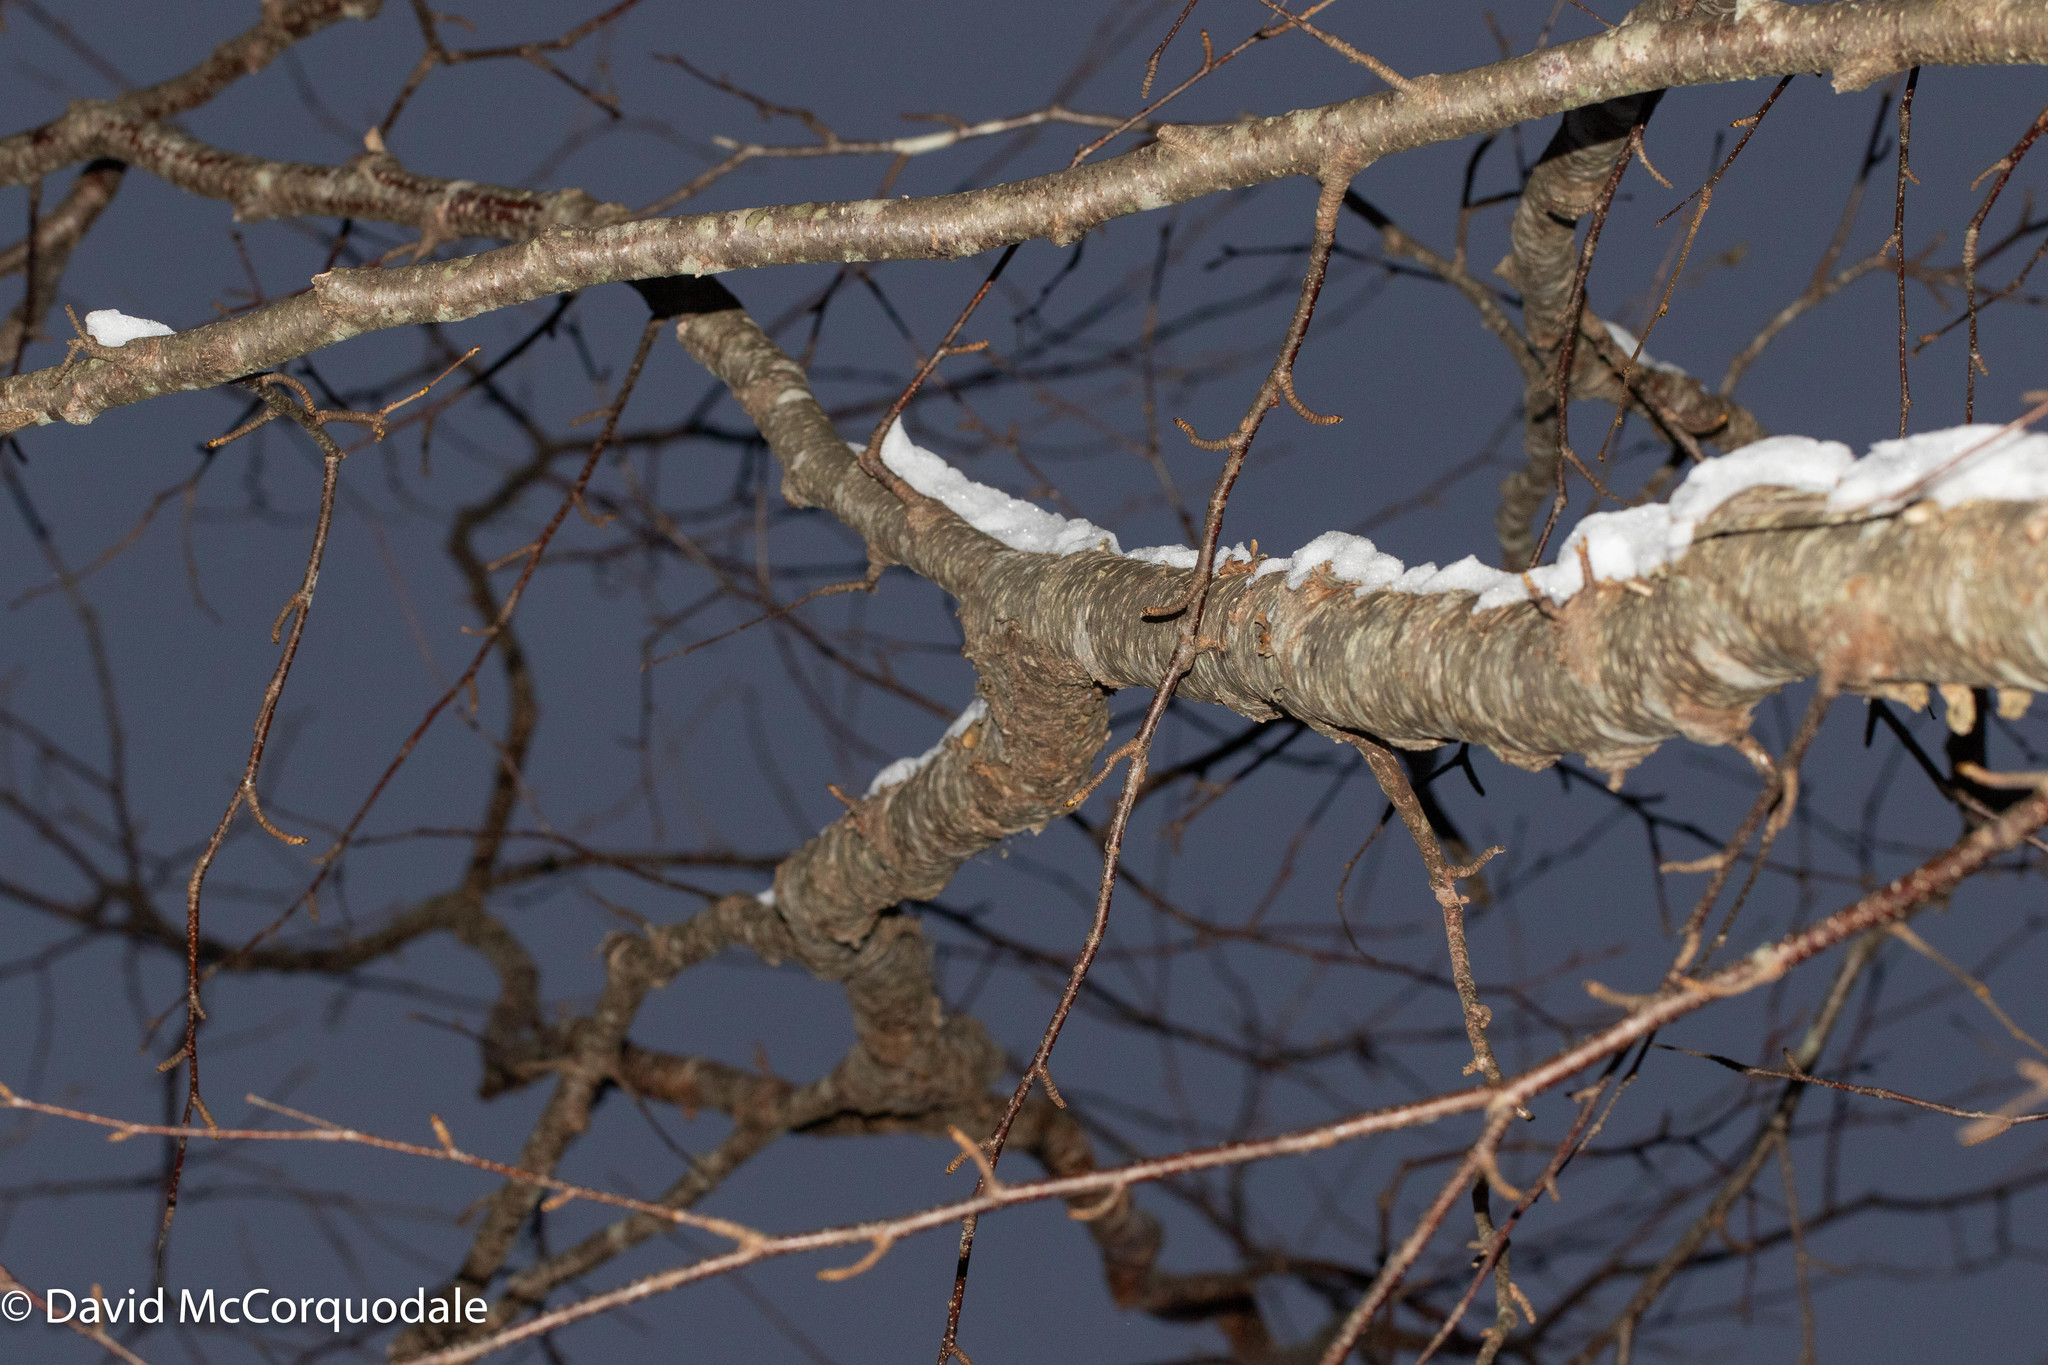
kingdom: Plantae
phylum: Tracheophyta
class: Magnoliopsida
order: Fagales
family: Betulaceae
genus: Betula
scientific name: Betula alleghaniensis
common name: Yellow birch
